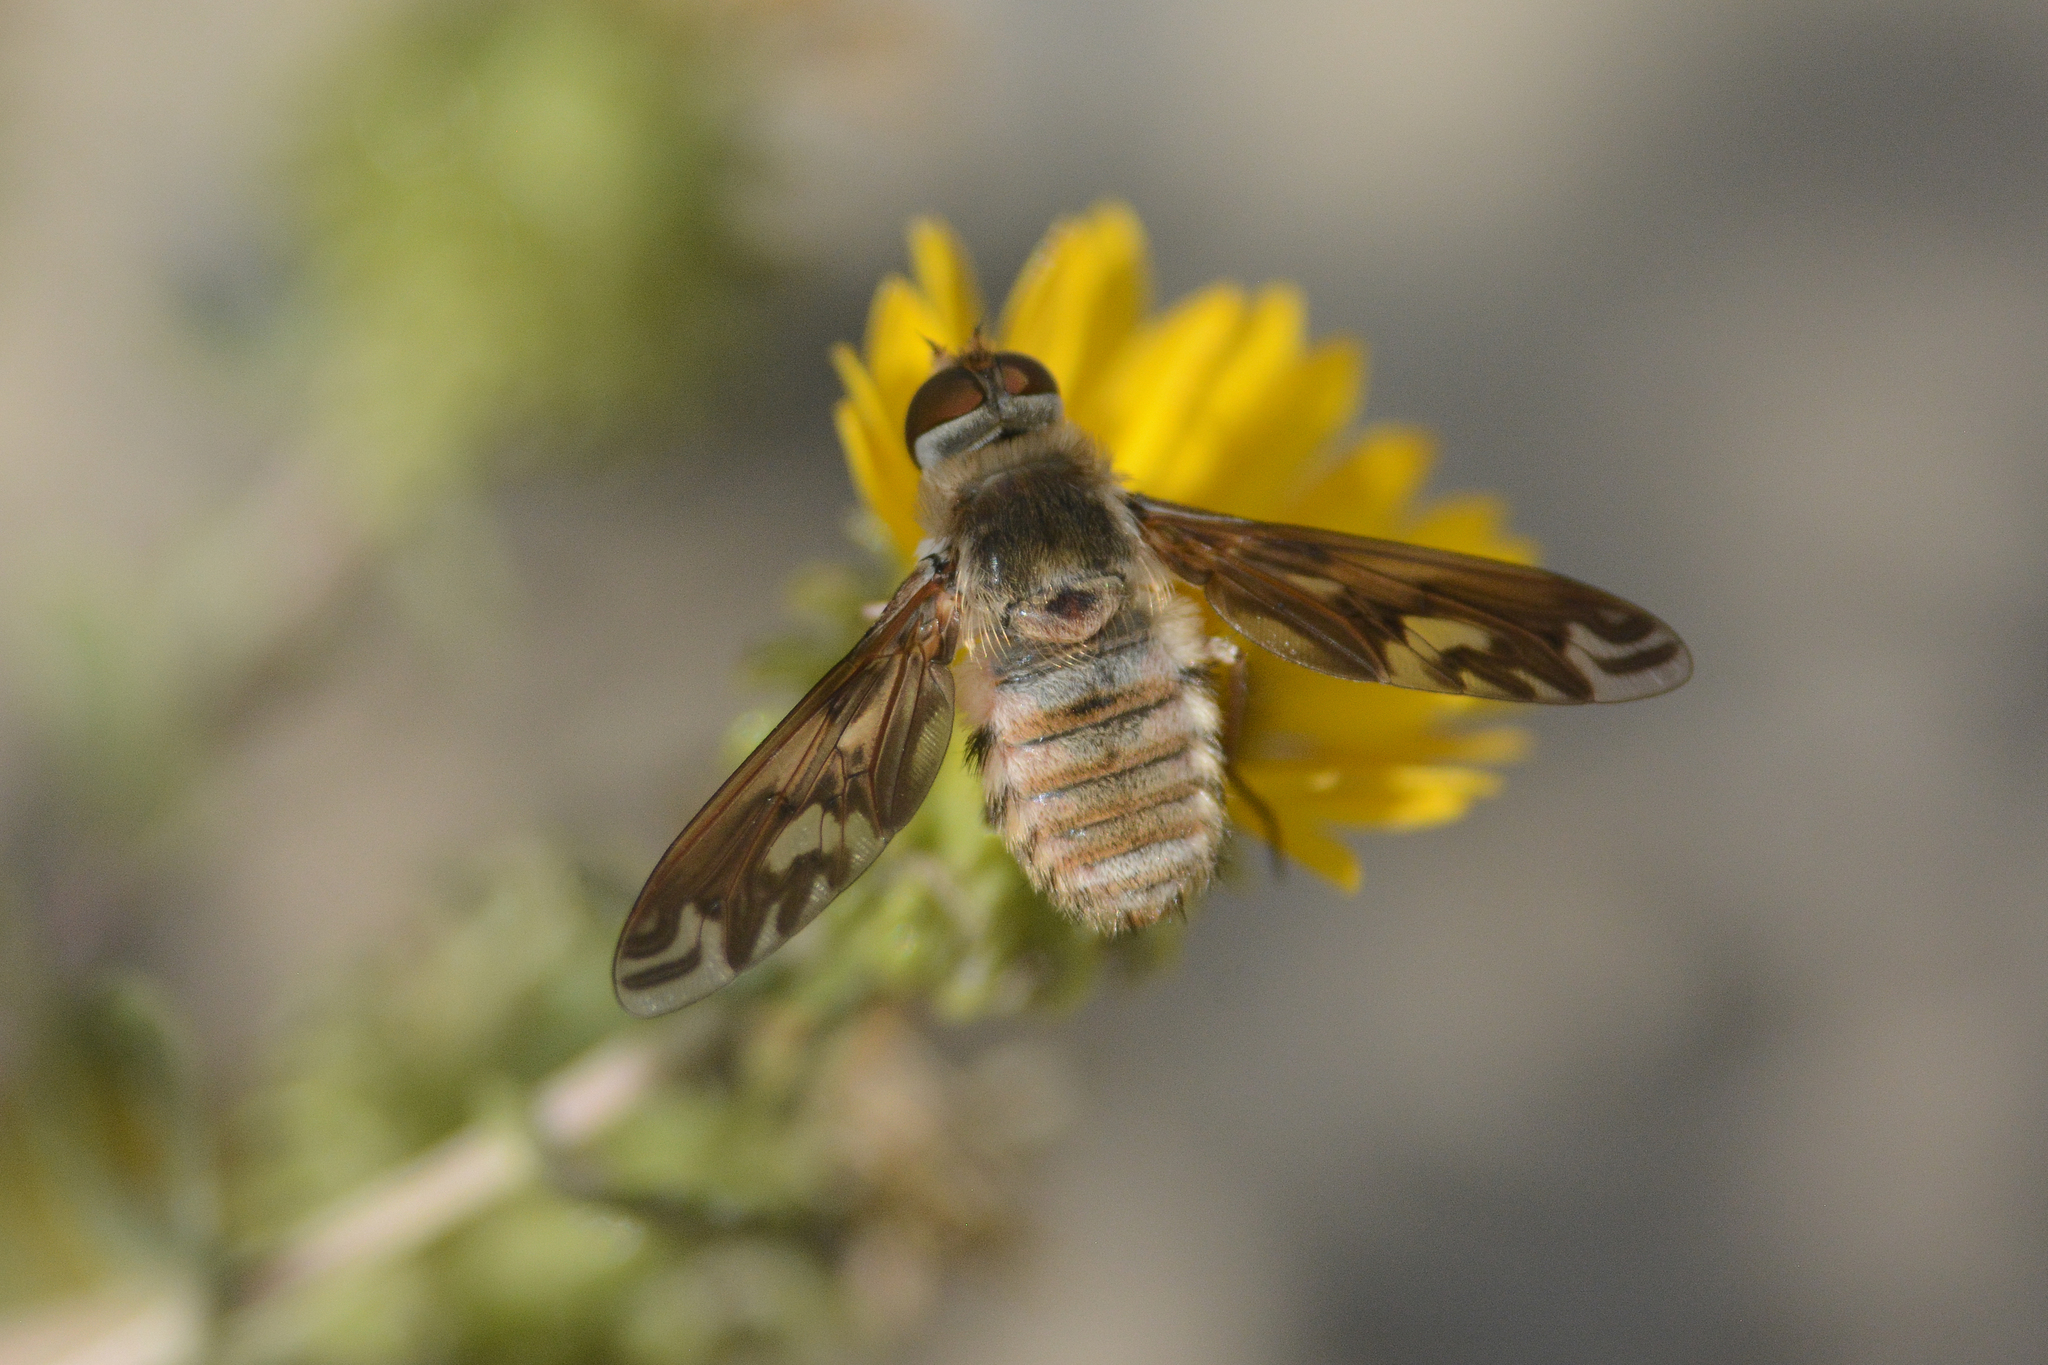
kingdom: Animalia
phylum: Arthropoda
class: Insecta
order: Diptera
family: Bombyliidae
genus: Poecilanthrax
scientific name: Poecilanthrax willistonii
